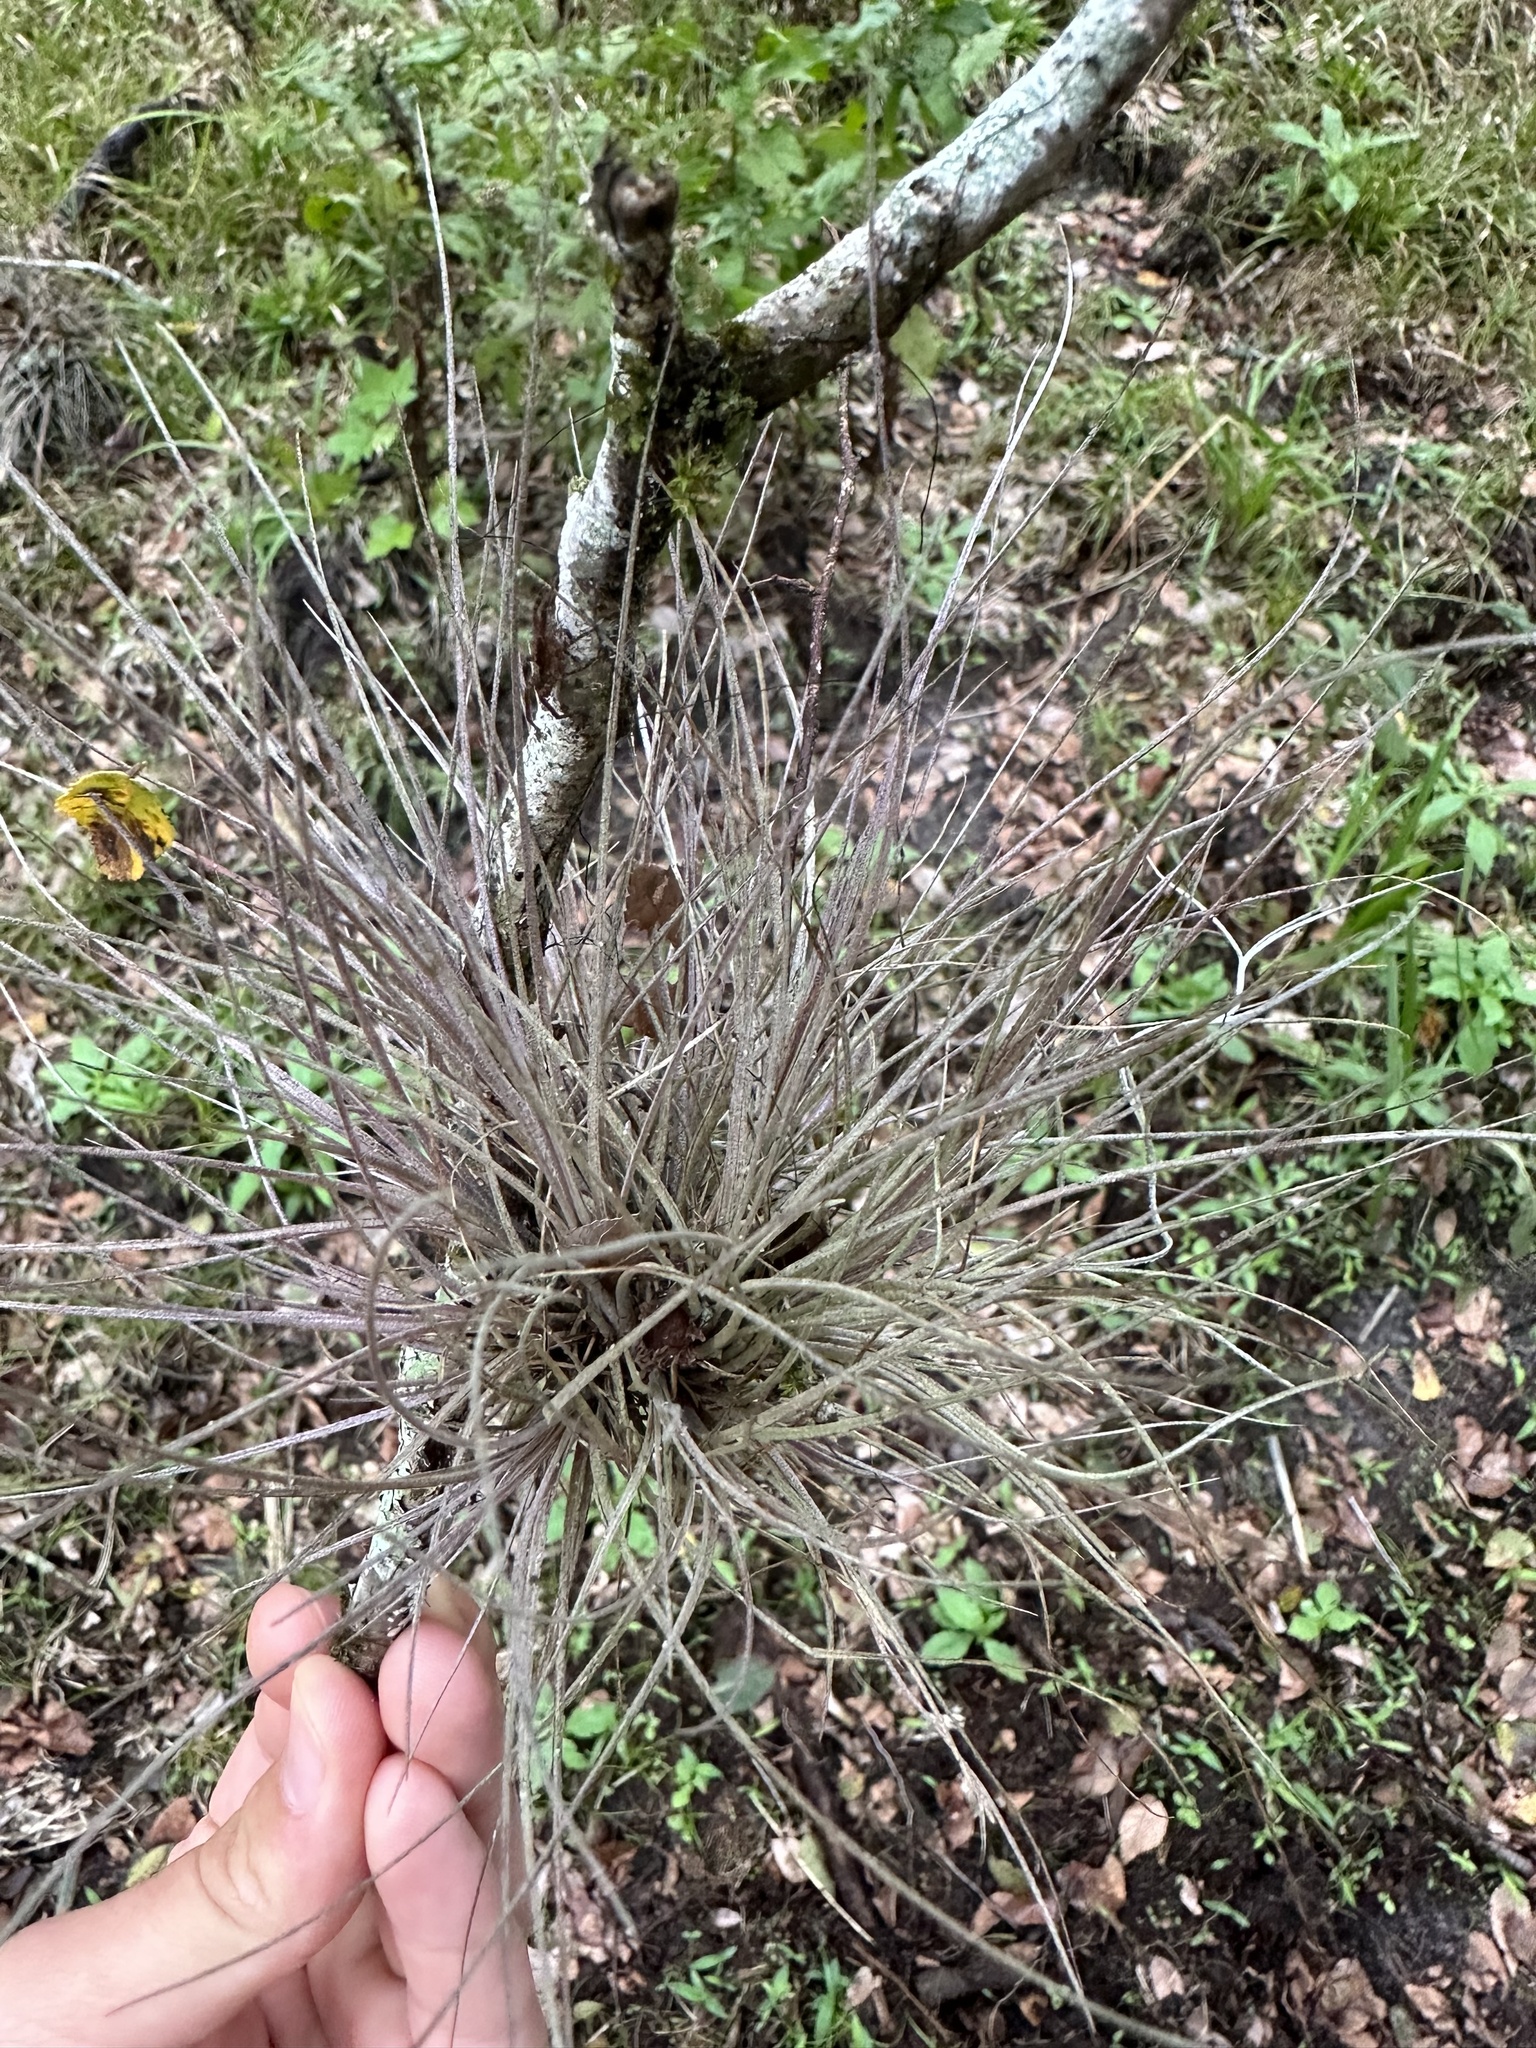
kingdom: Plantae
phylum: Tracheophyta
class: Liliopsida
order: Poales
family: Bromeliaceae
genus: Tillandsia
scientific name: Tillandsia bartramii
